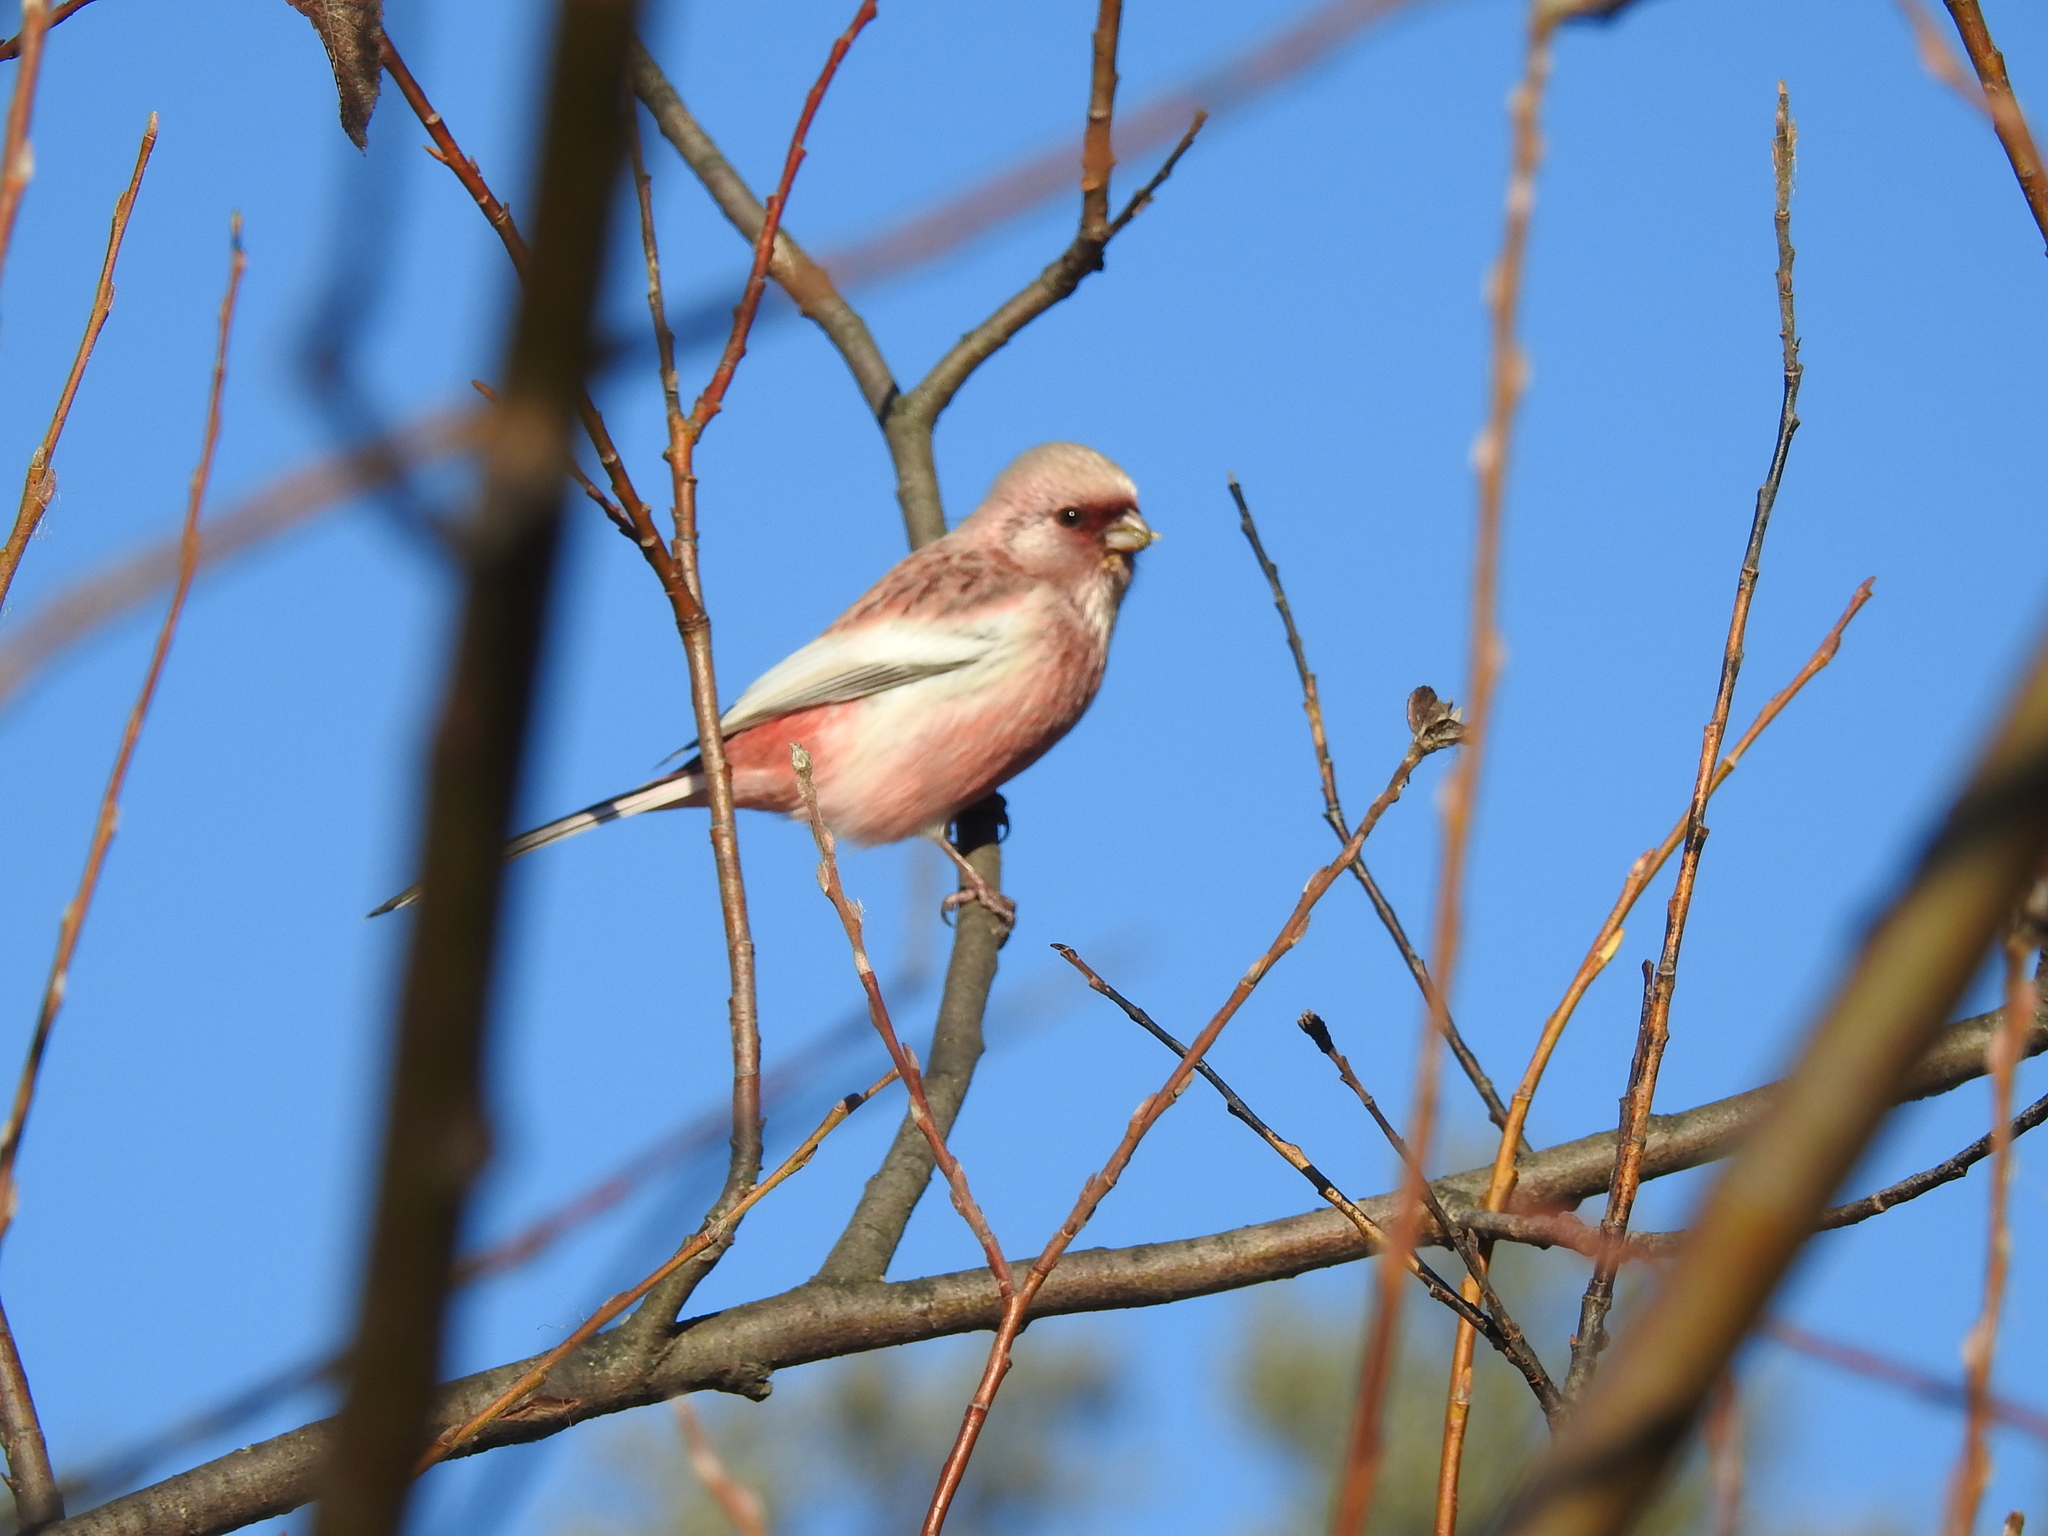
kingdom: Animalia
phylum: Chordata
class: Aves
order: Passeriformes
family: Fringillidae
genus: Carpodacus
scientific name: Carpodacus sibiricus
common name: Long-tailed rosefinch
